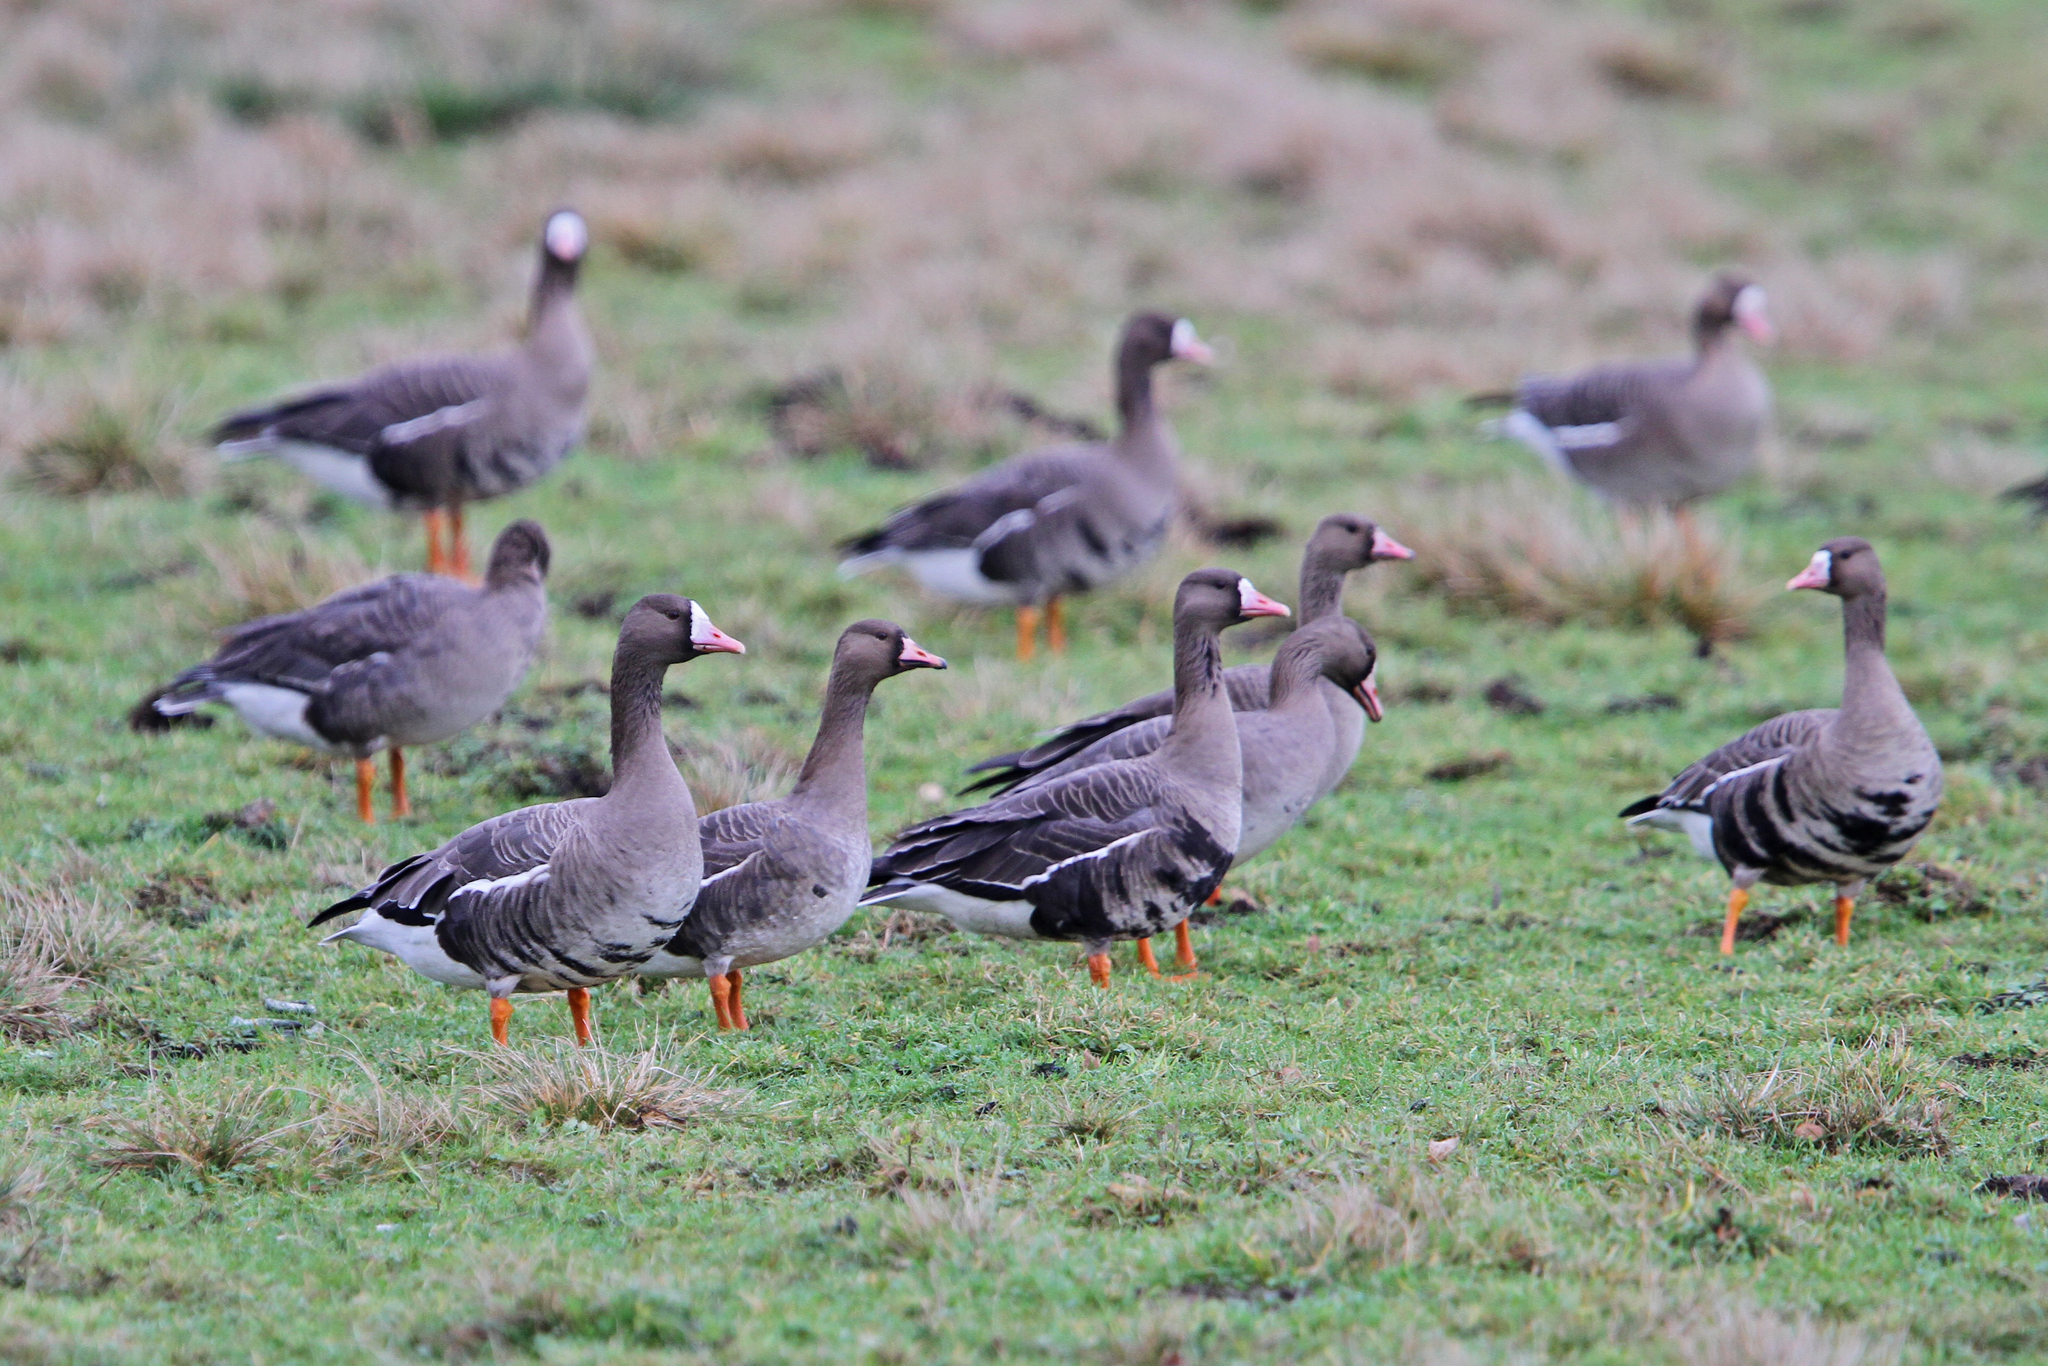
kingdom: Animalia
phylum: Chordata
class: Aves
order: Anseriformes
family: Anatidae
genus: Anser
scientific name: Anser albifrons
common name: Greater white-fronted goose
